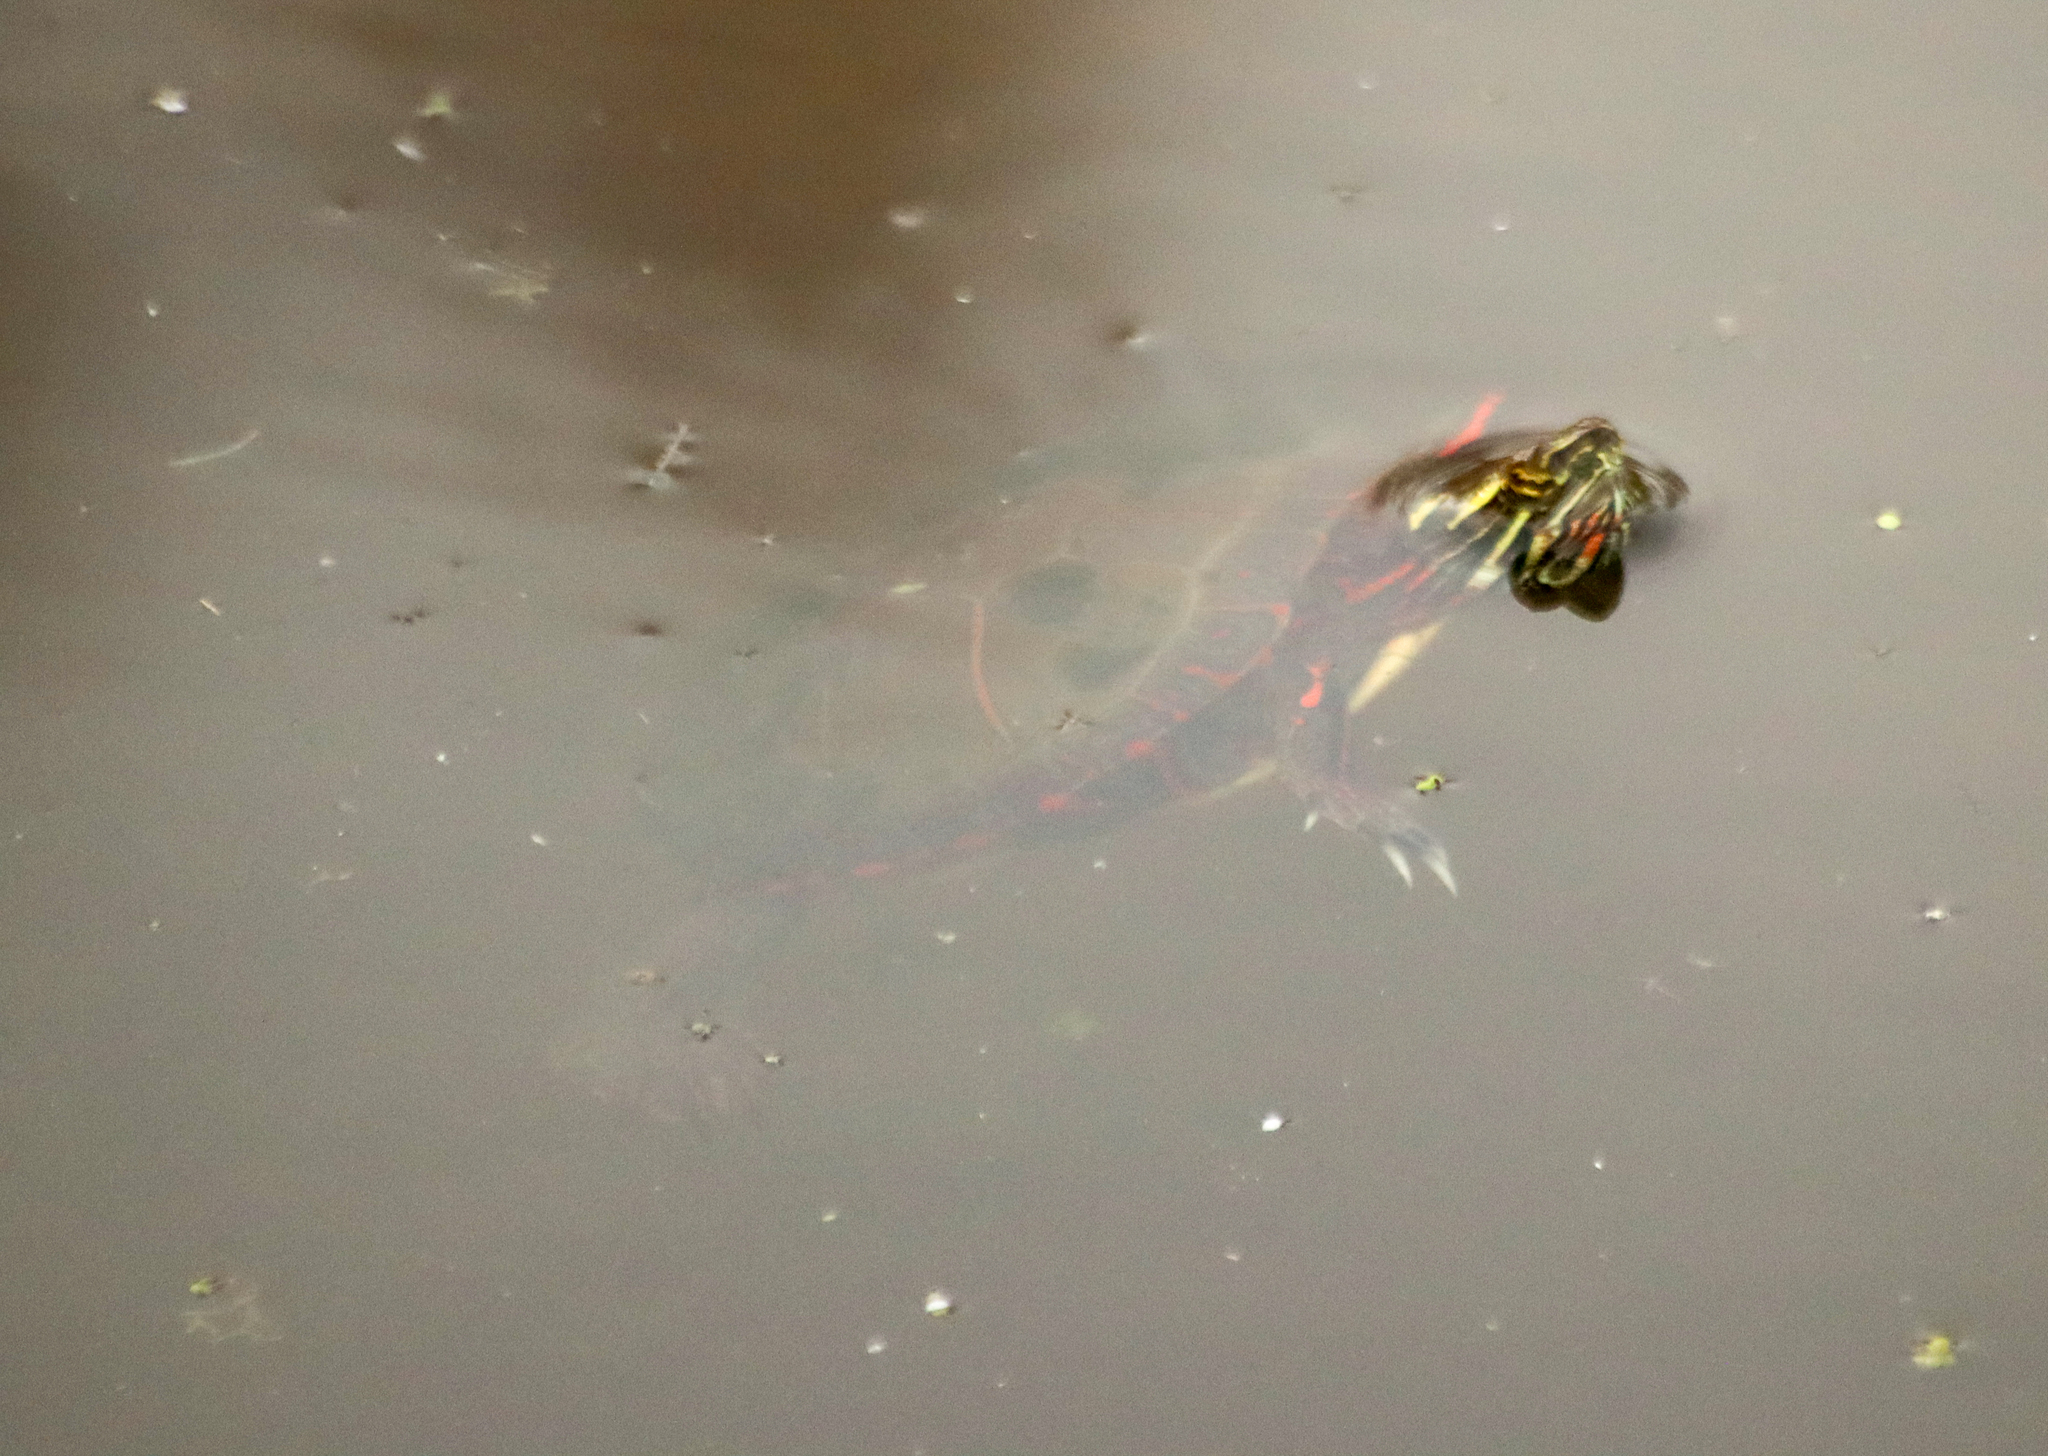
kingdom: Animalia
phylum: Chordata
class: Testudines
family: Emydidae
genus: Chrysemys
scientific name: Chrysemys picta
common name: Painted turtle
